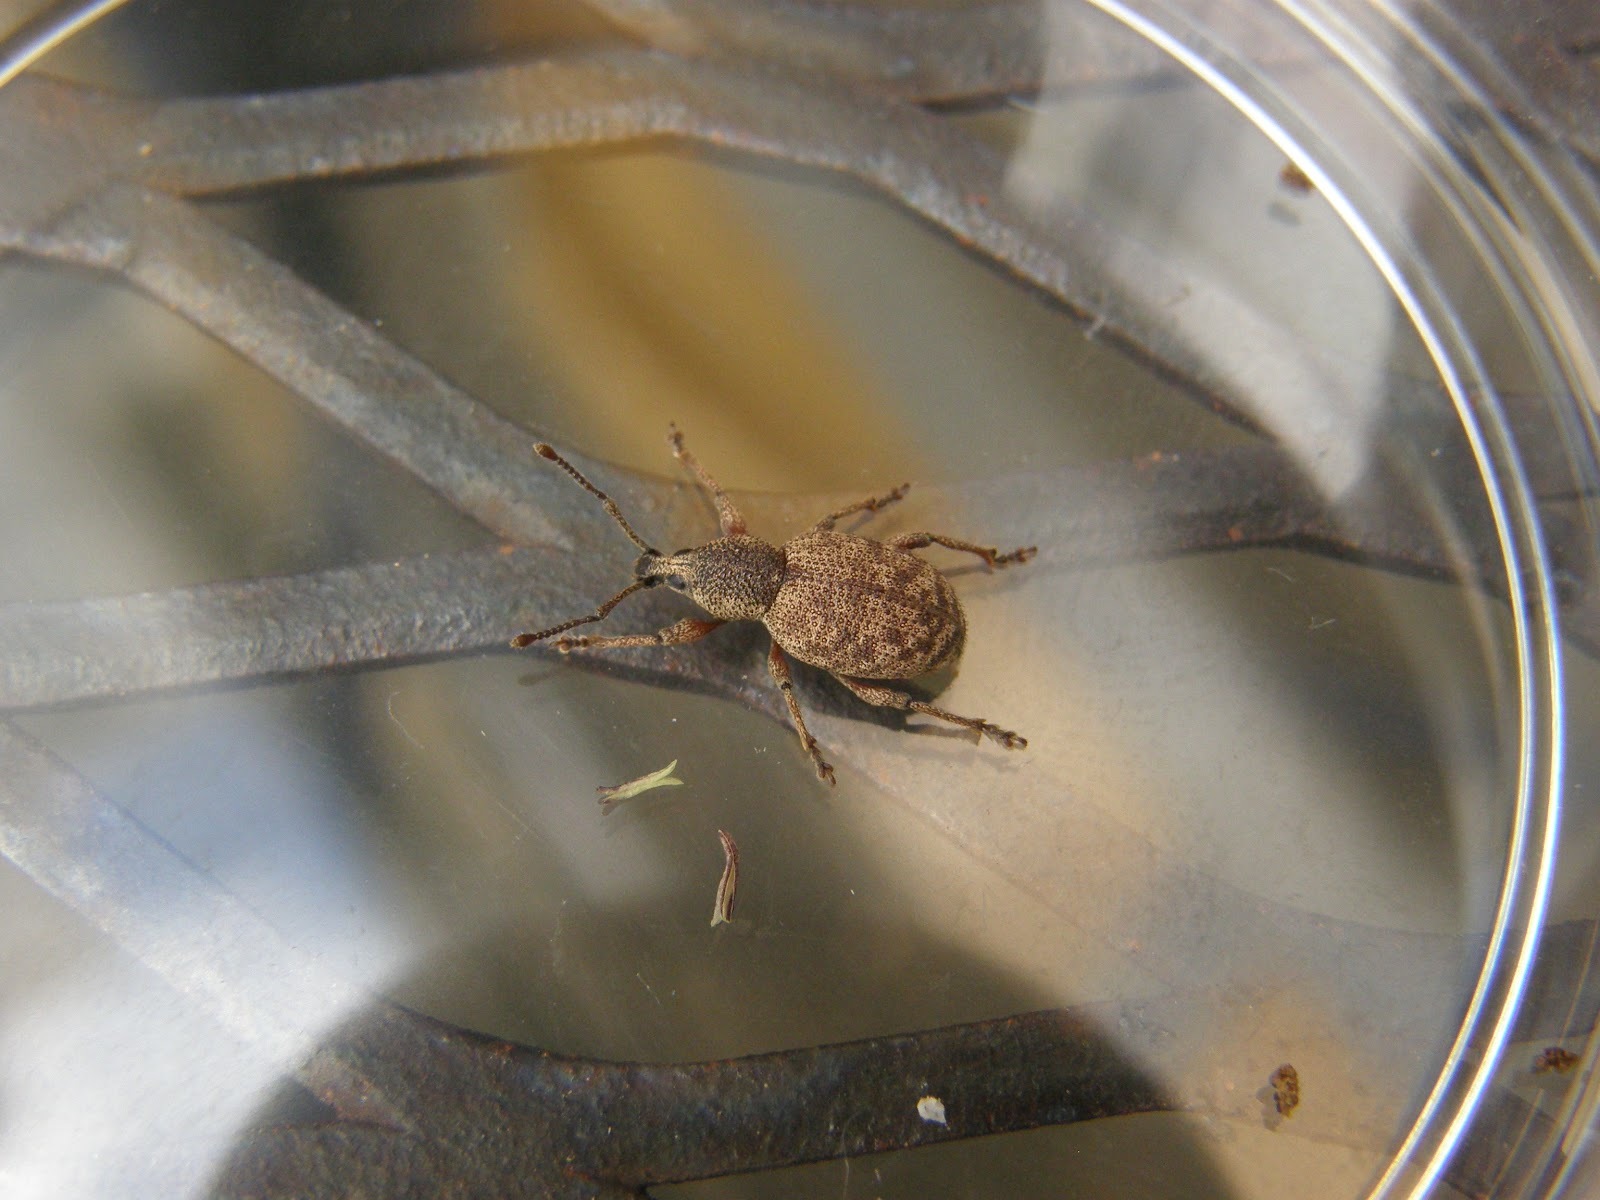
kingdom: Animalia
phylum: Arthropoda
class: Insecta
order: Coleoptera
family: Curculionidae
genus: Otiorhynchus
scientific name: Otiorhynchus singularis
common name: Clay-coloured weevil
